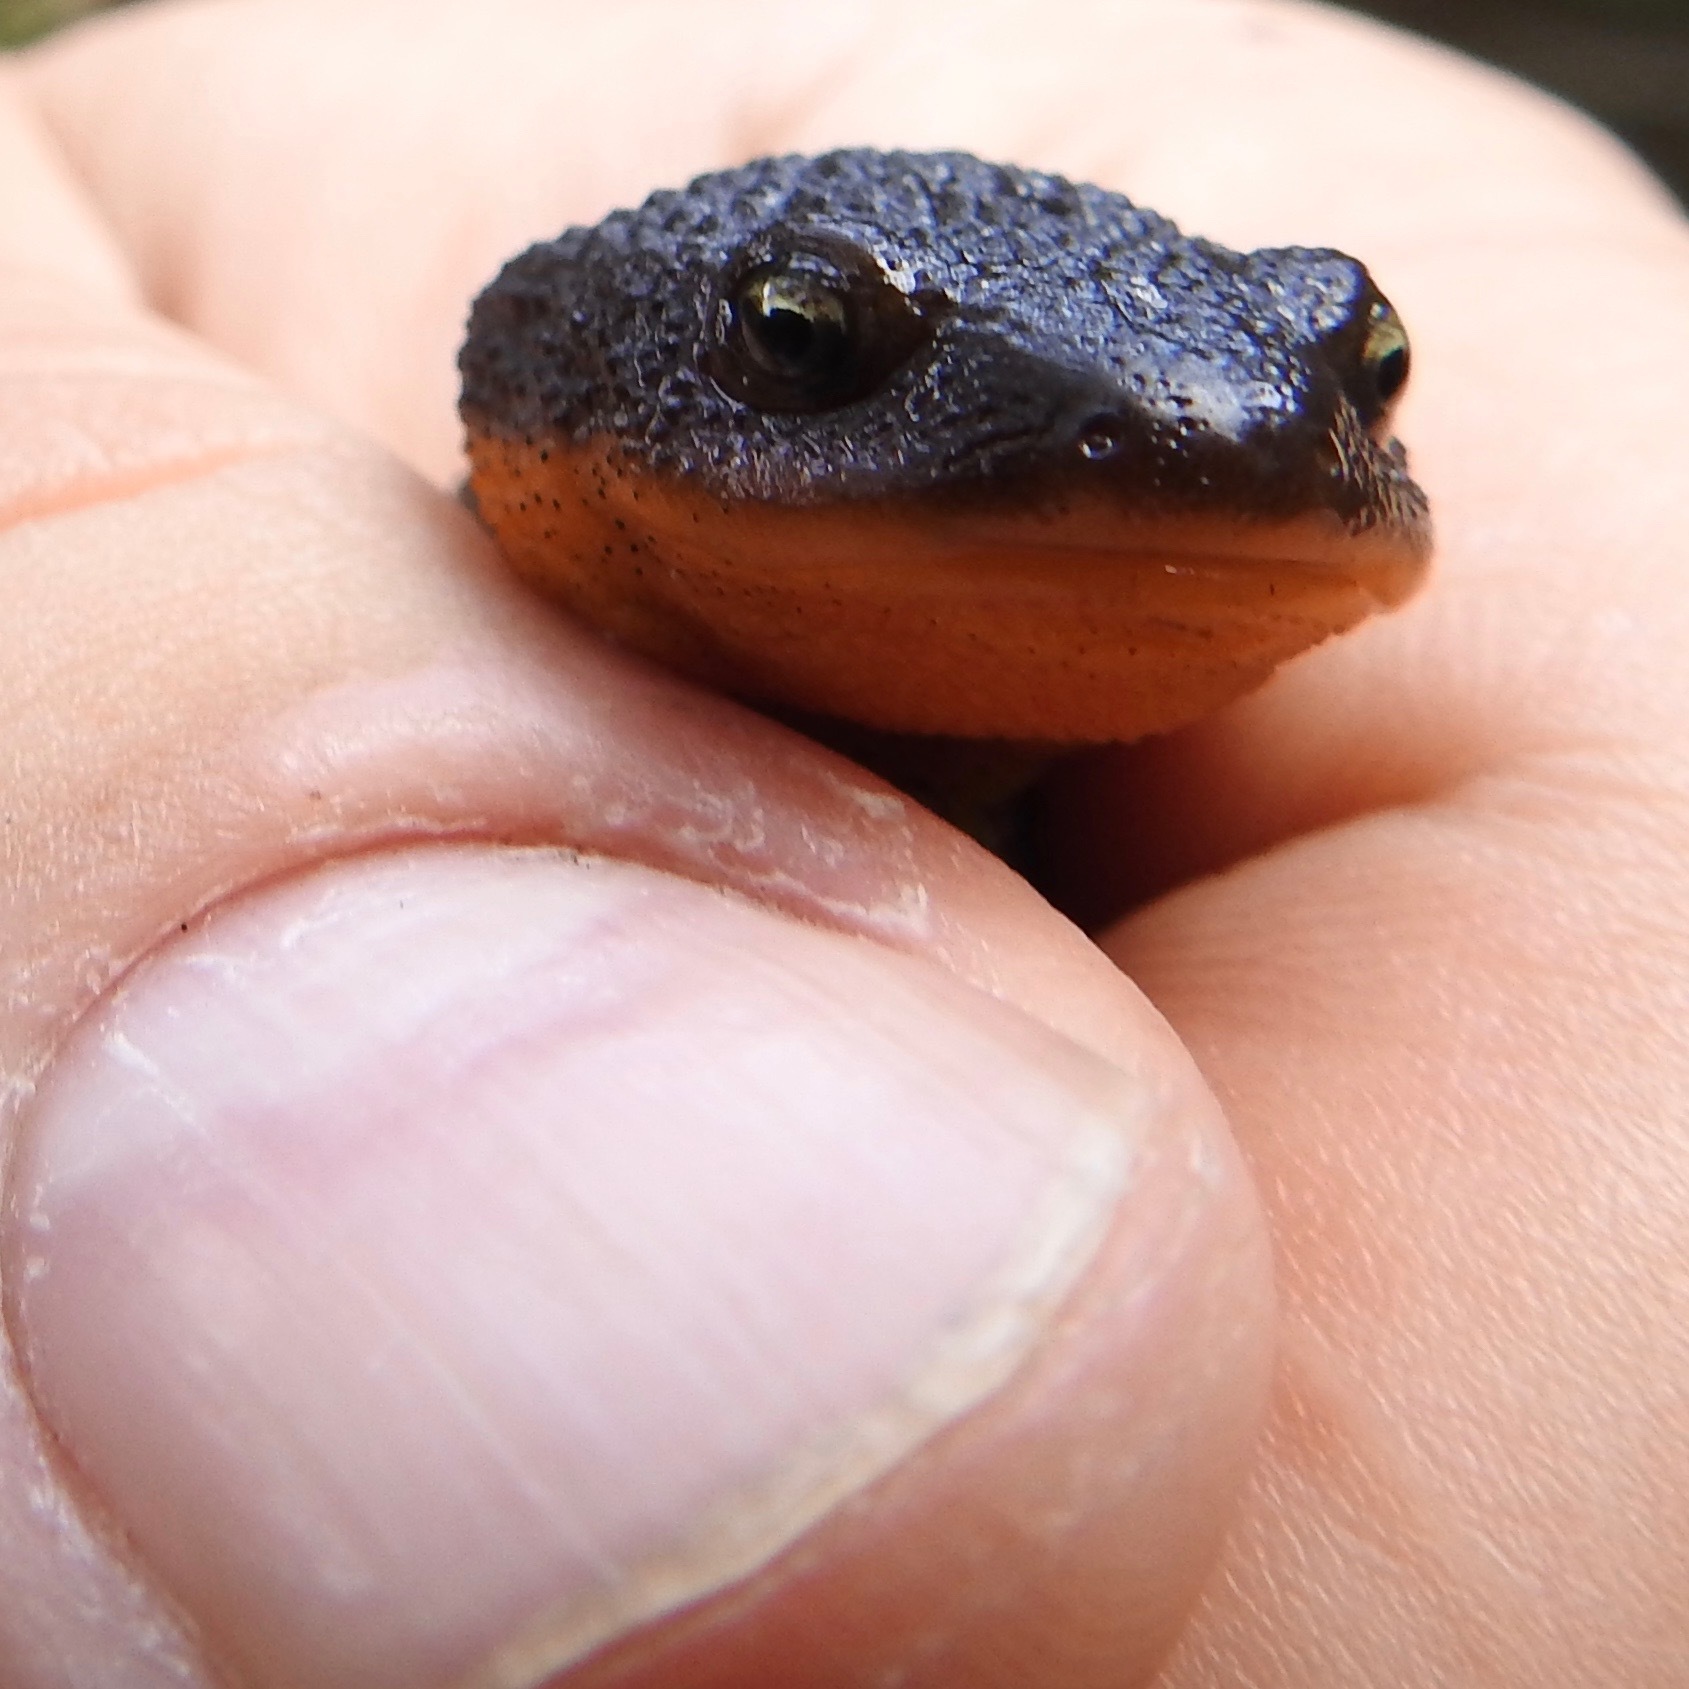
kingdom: Animalia
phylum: Chordata
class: Amphibia
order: Caudata
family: Salamandridae
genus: Taricha
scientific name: Taricha granulosa
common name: Roughskin newt
